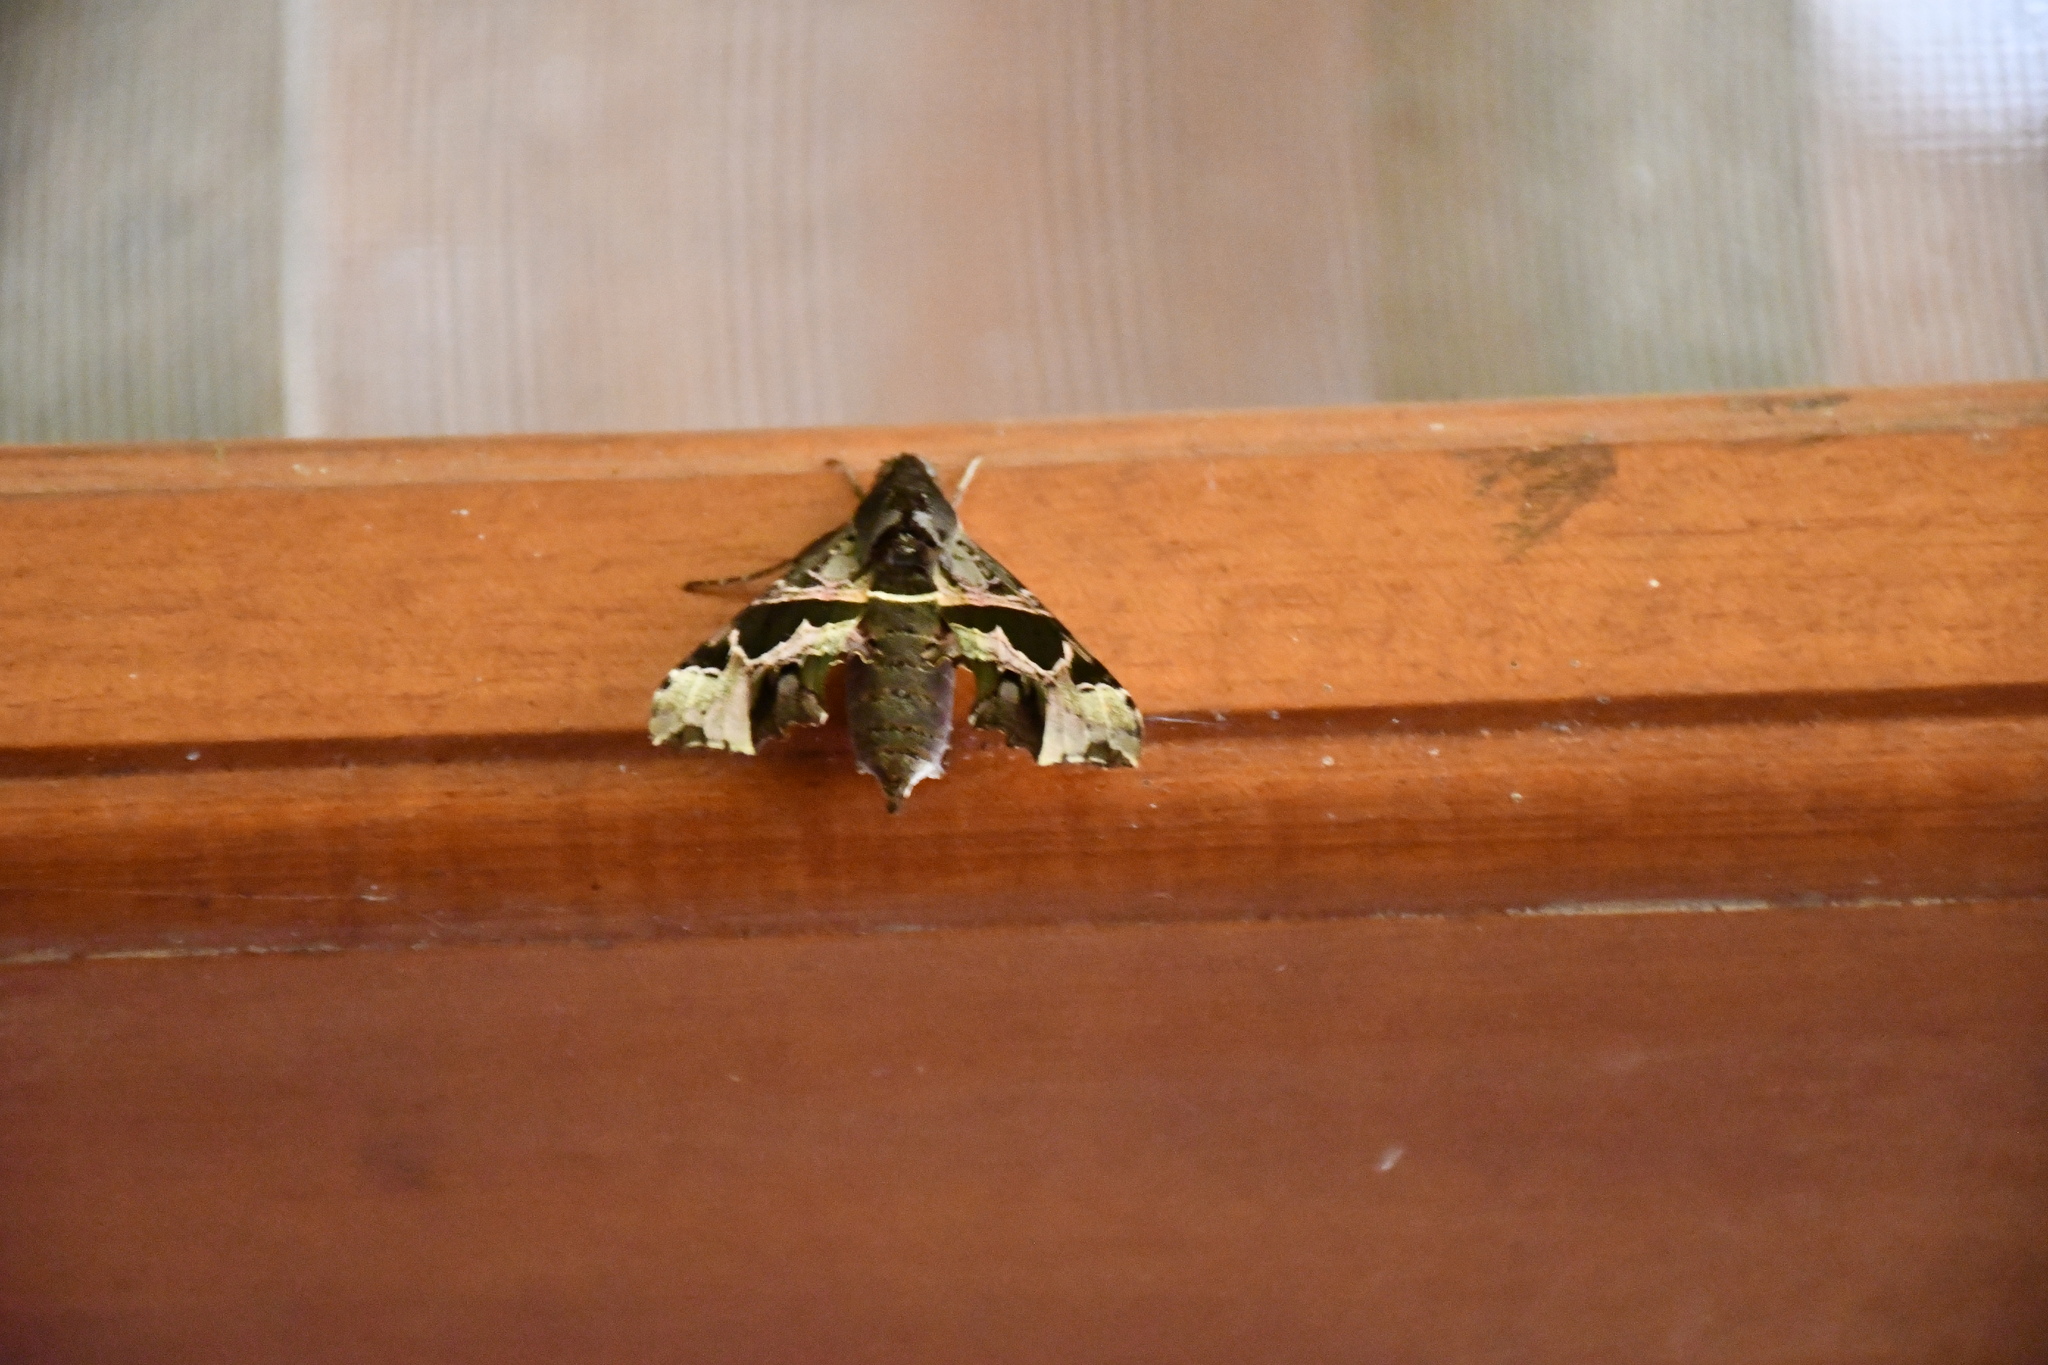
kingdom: Animalia
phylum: Arthropoda
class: Insecta
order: Lepidoptera
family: Sphingidae
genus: Unzela
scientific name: Unzela japix
